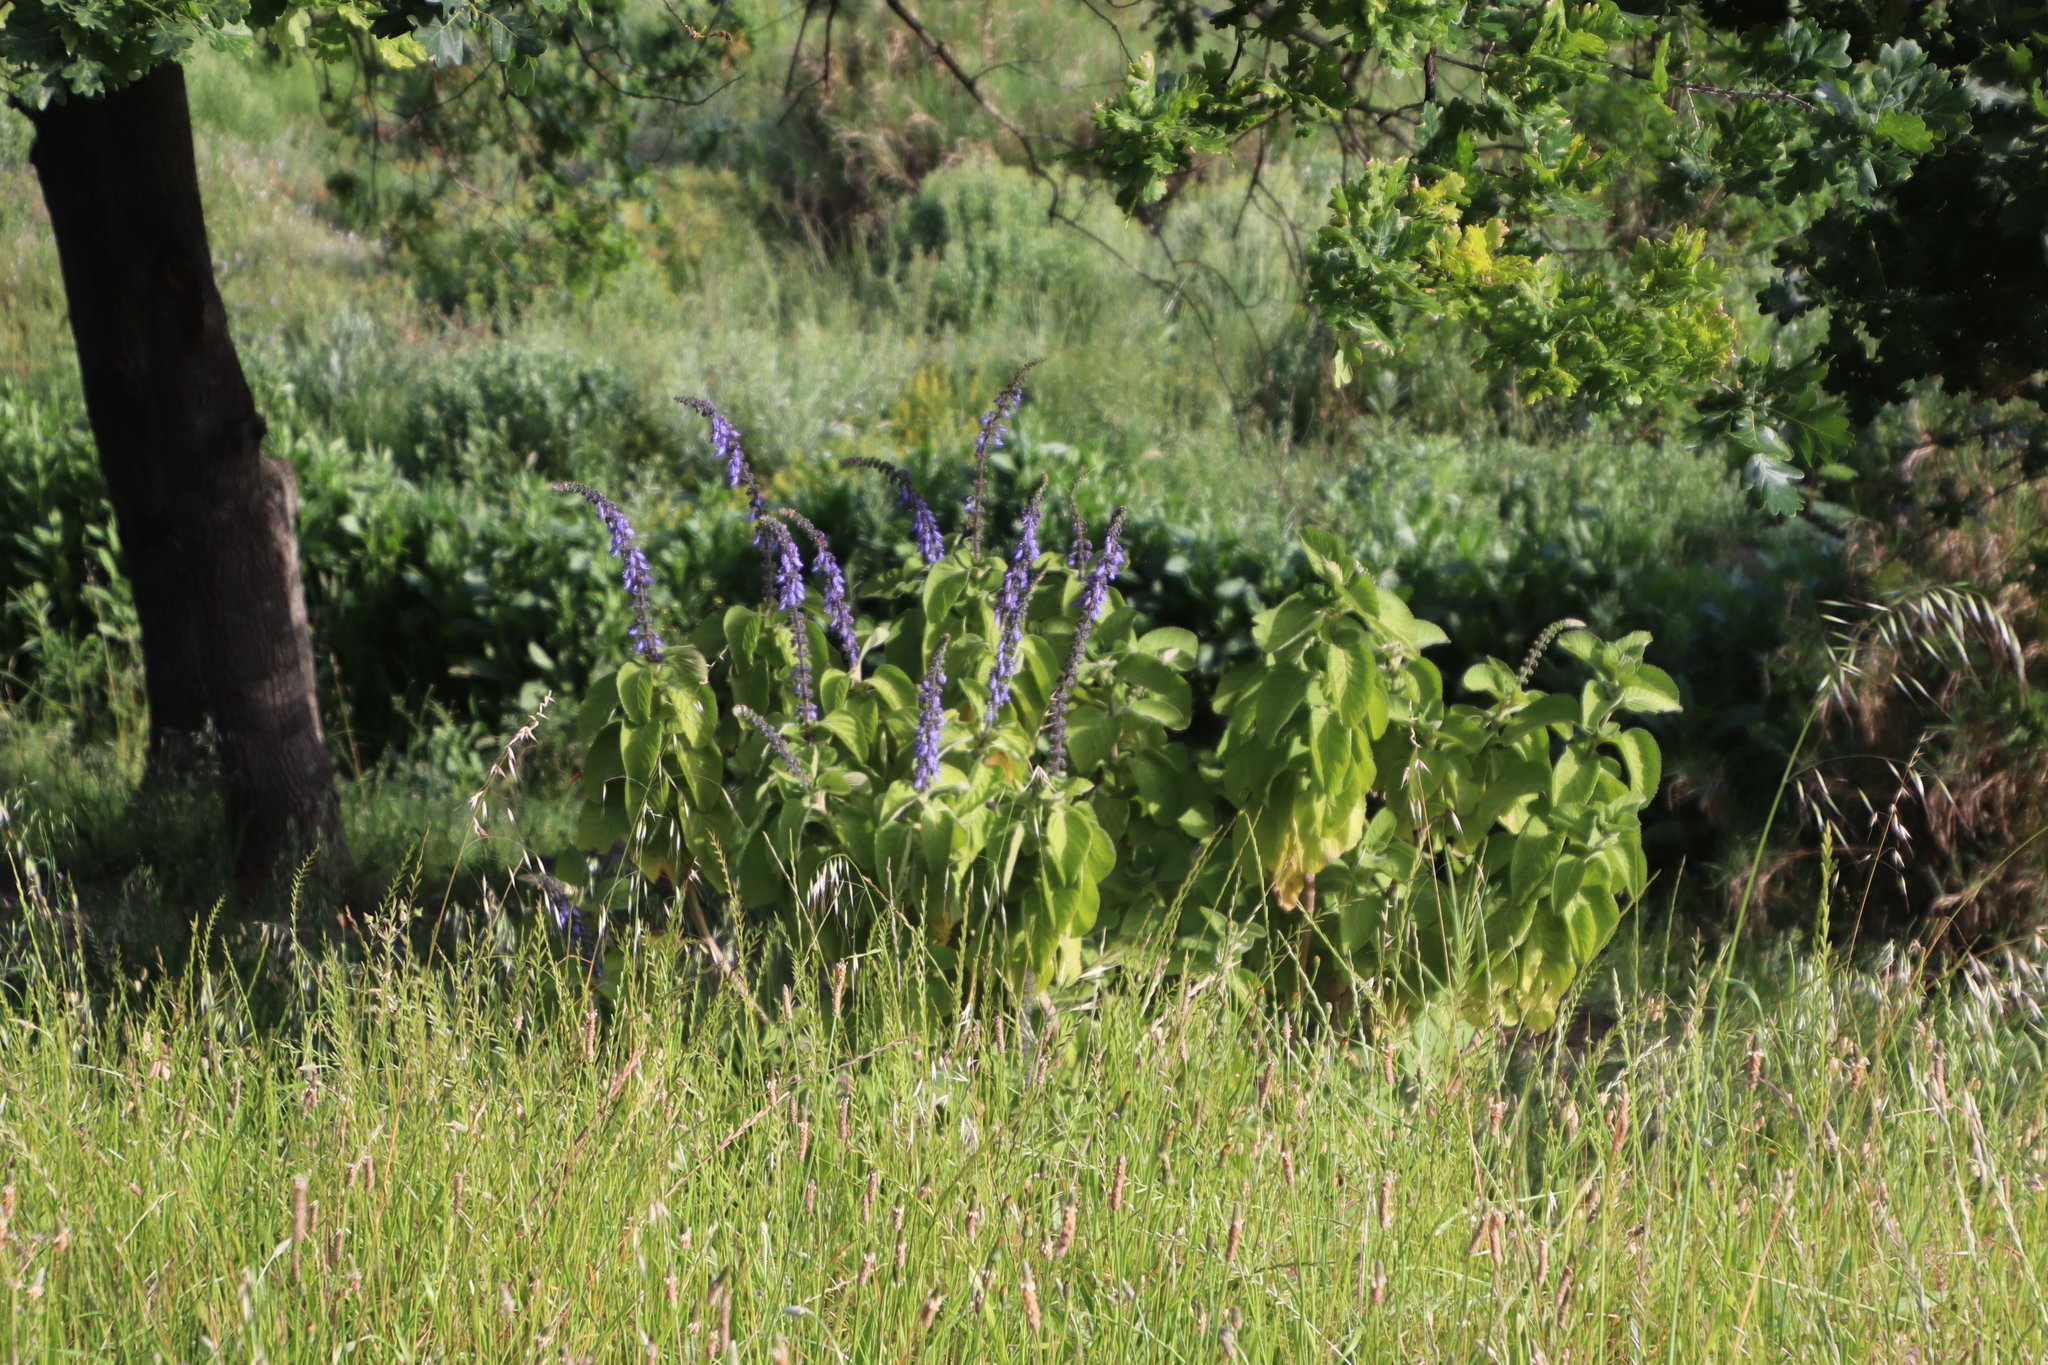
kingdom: Plantae
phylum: Tracheophyta
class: Magnoliopsida
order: Lamiales
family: Lamiaceae
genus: Coleus
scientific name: Coleus barbatus
